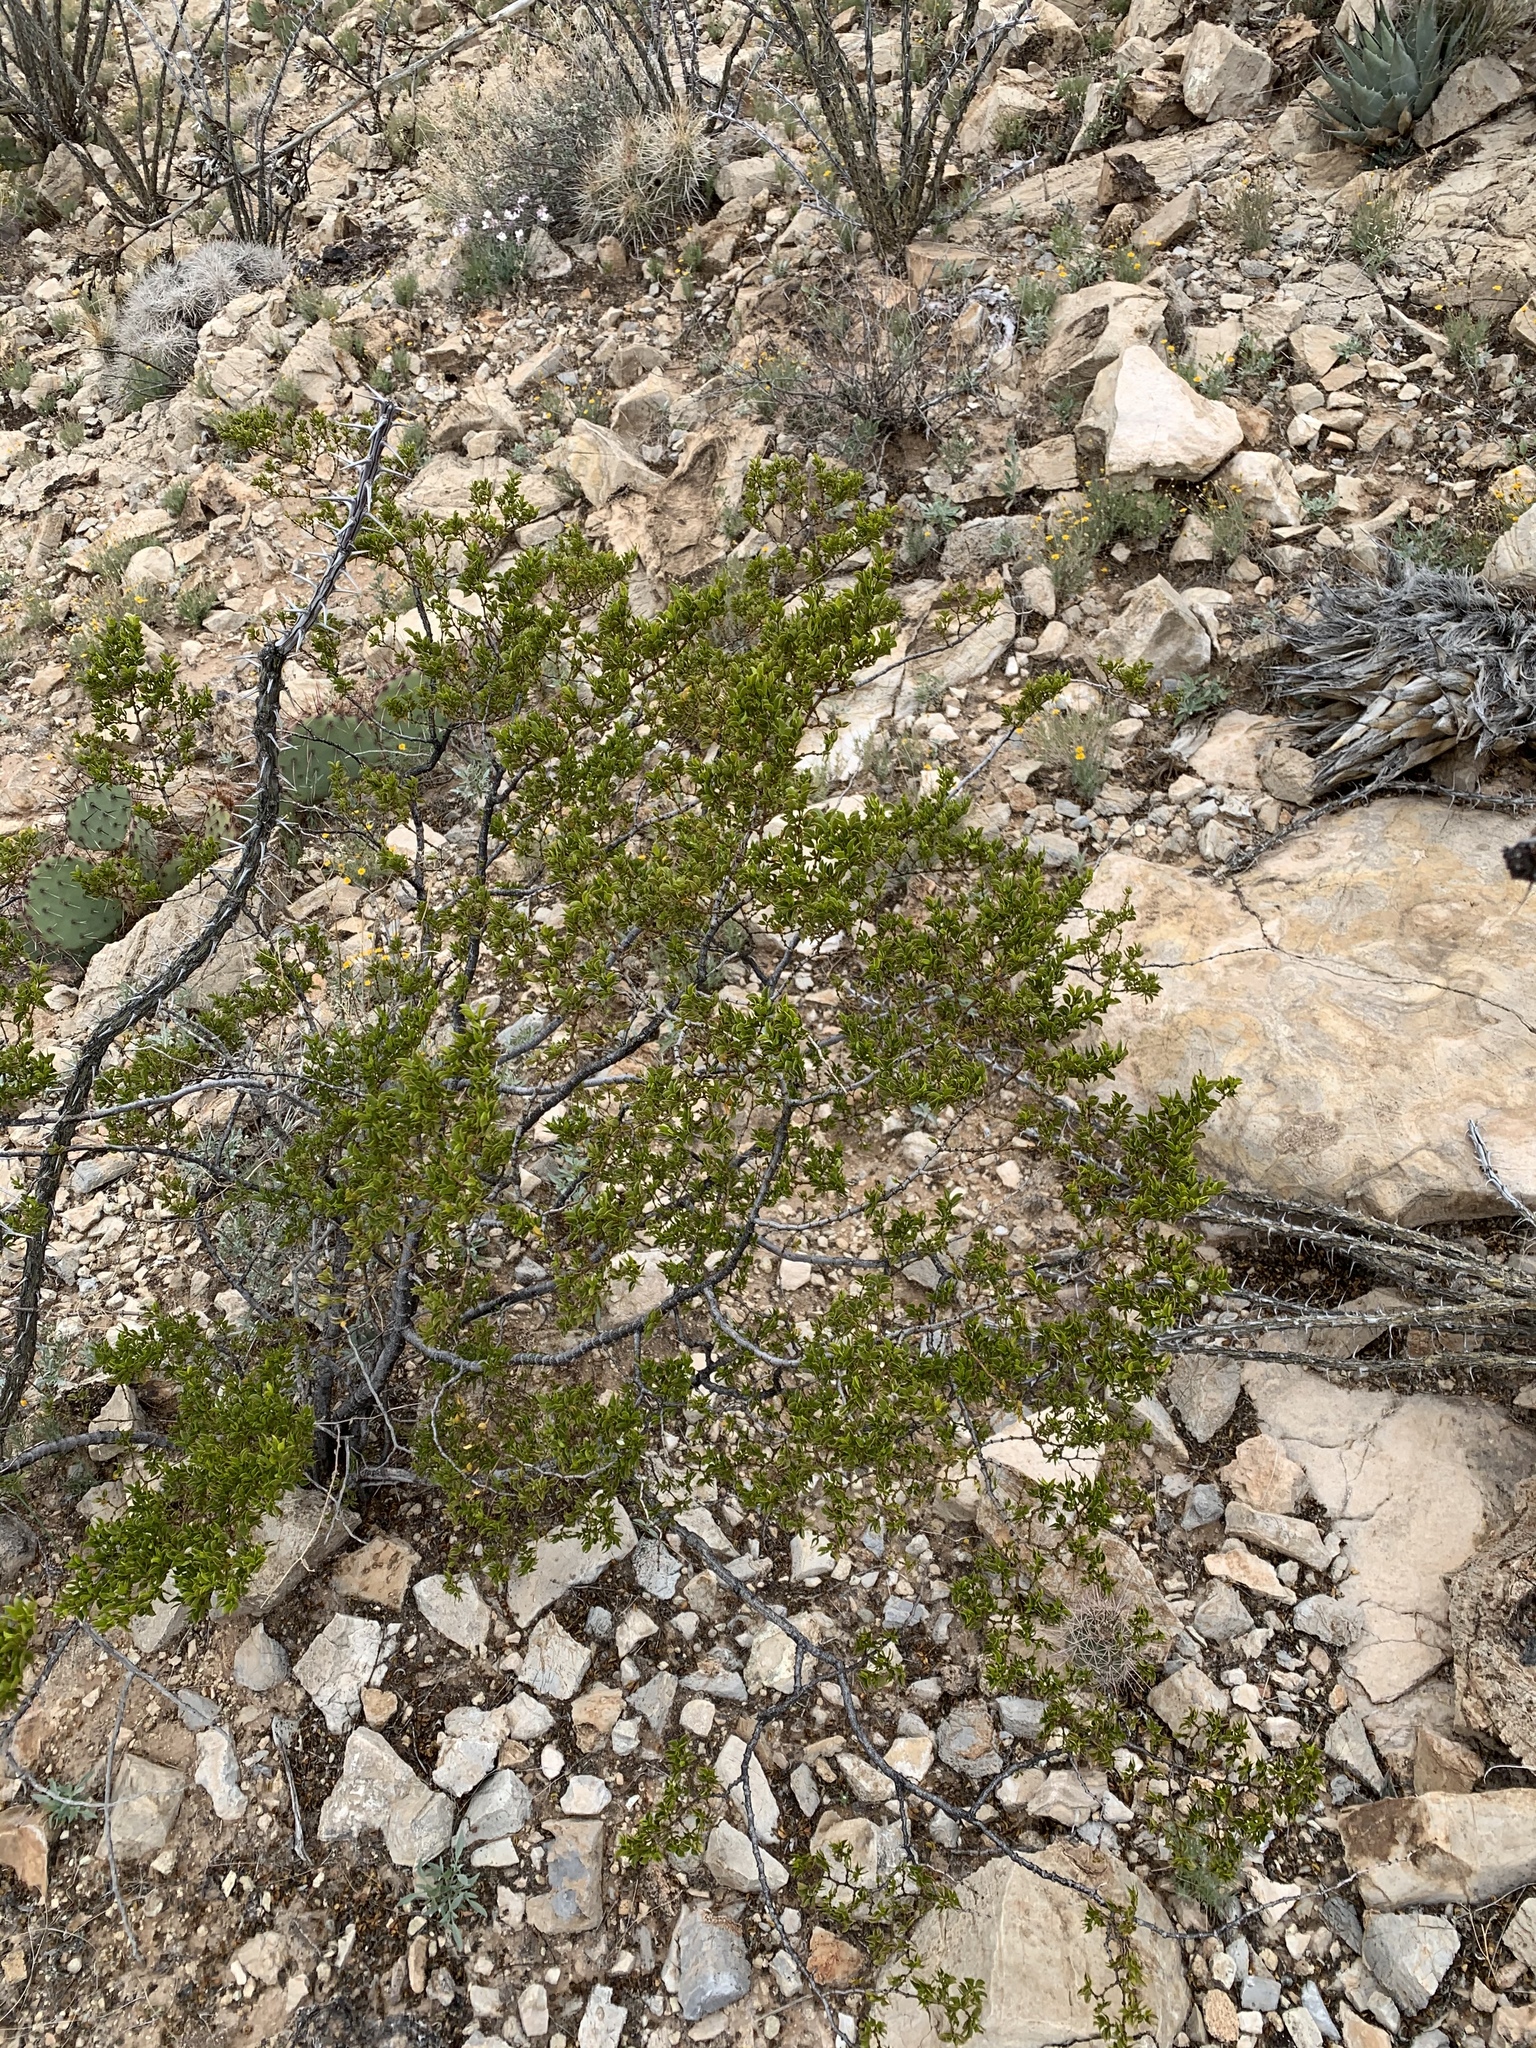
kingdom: Plantae
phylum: Tracheophyta
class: Magnoliopsida
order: Zygophyllales
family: Zygophyllaceae
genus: Larrea
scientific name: Larrea tridentata
